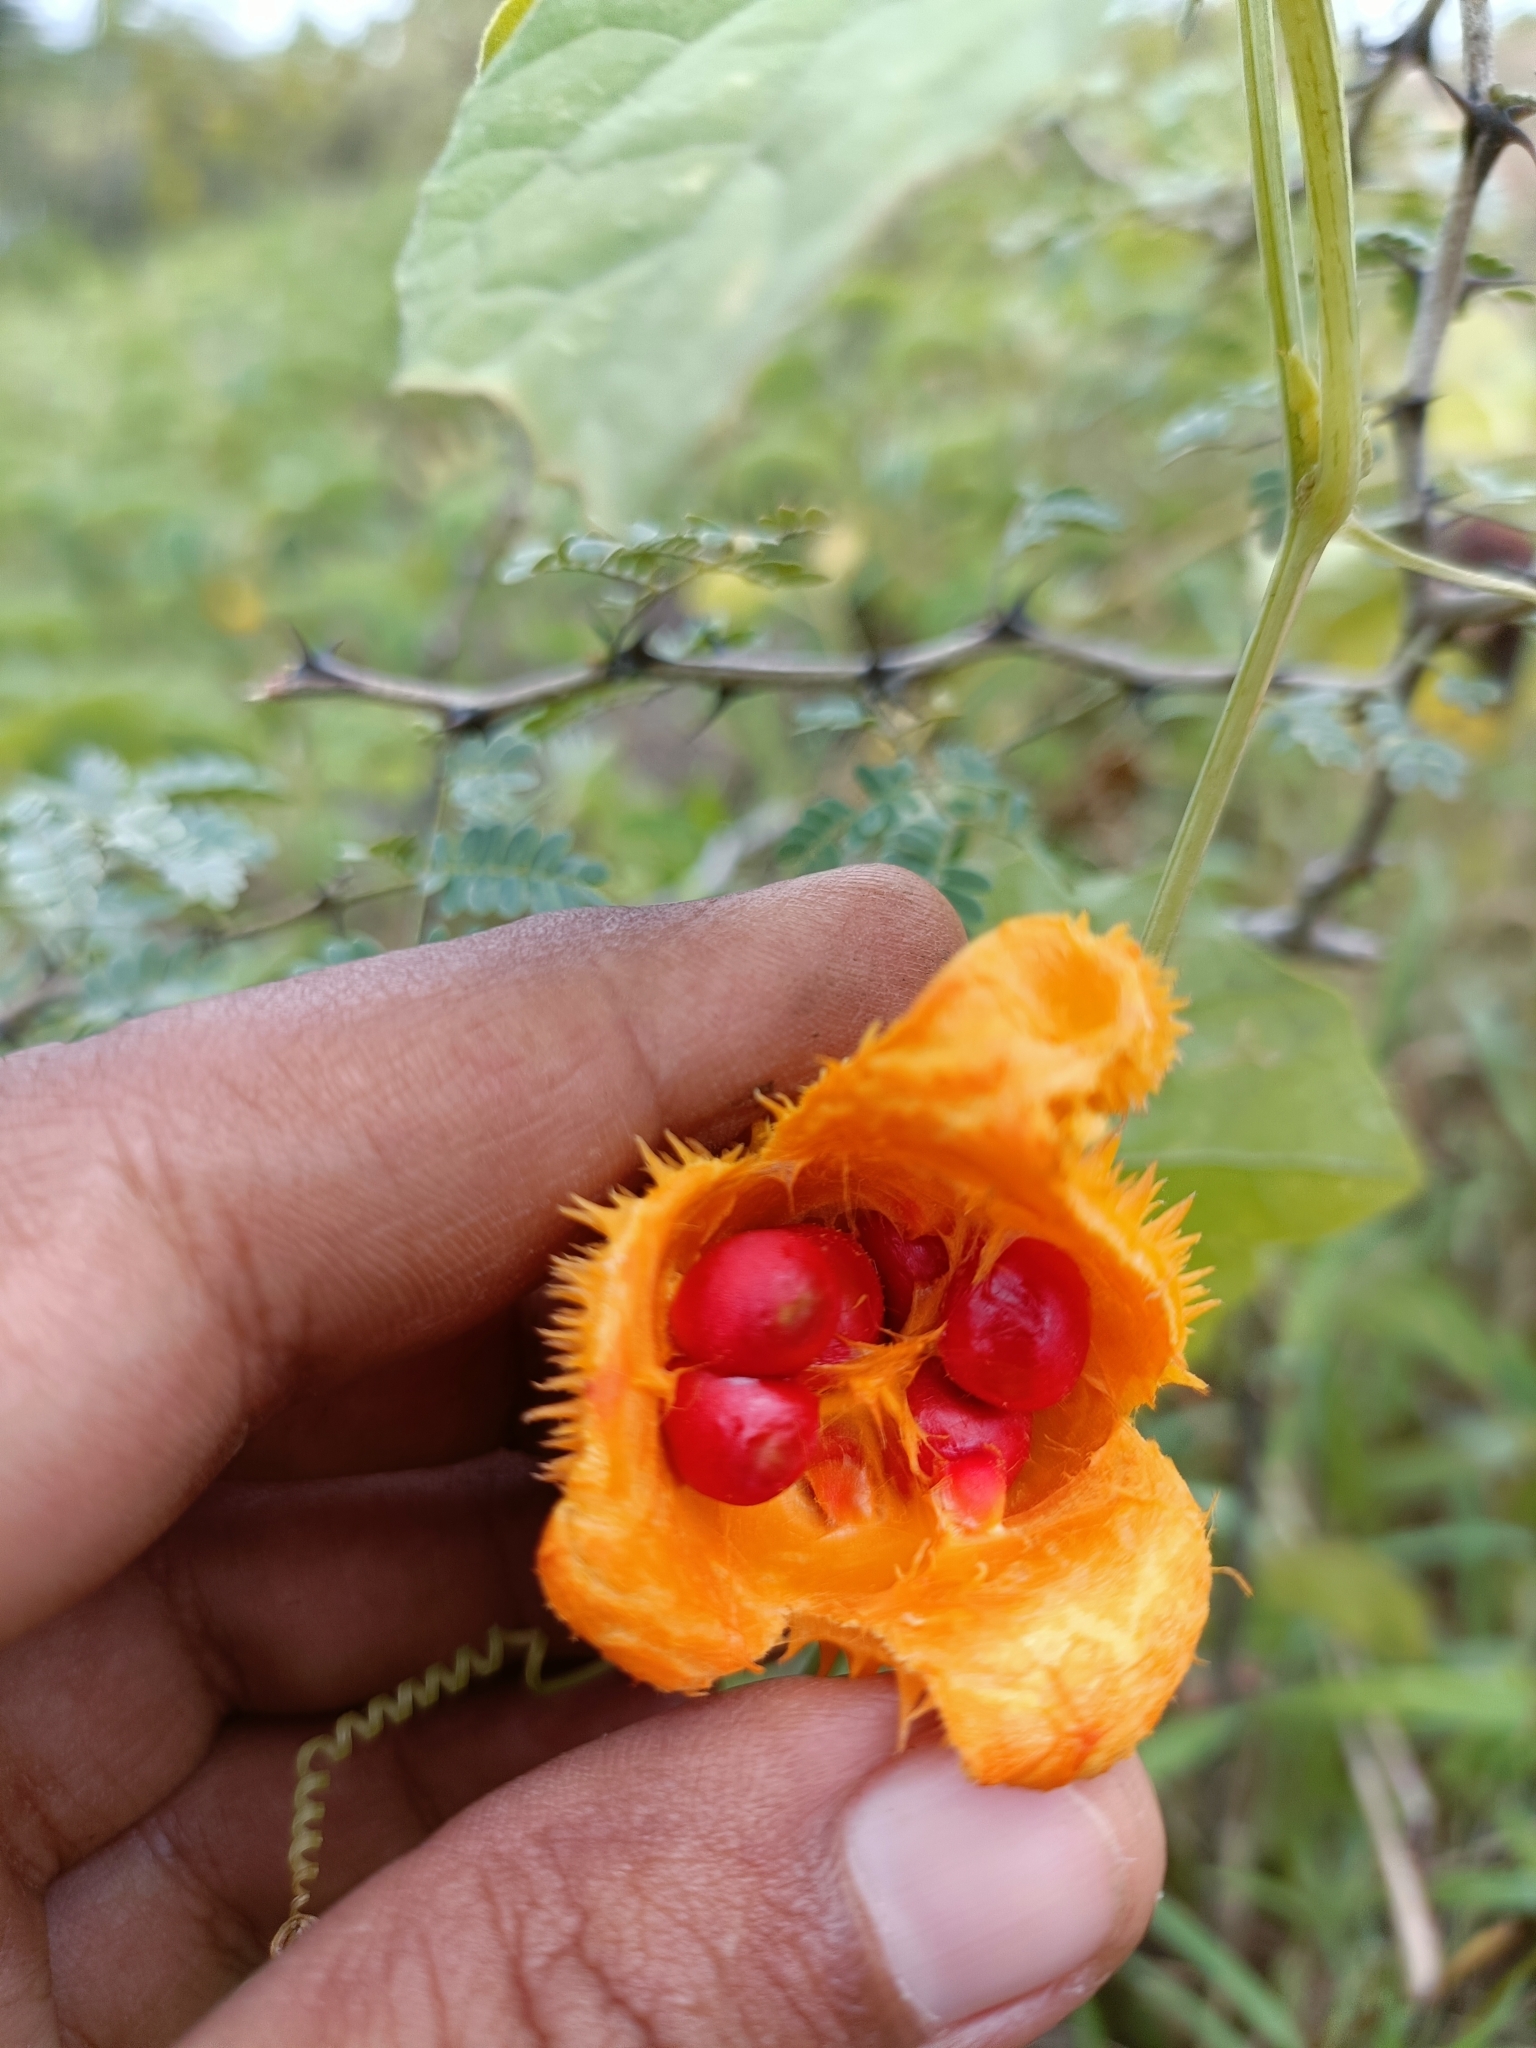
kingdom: Plantae
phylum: Tracheophyta
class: Magnoliopsida
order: Cucurbitales
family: Cucurbitaceae
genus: Momordica
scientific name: Momordica dioica
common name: Spine gourd
